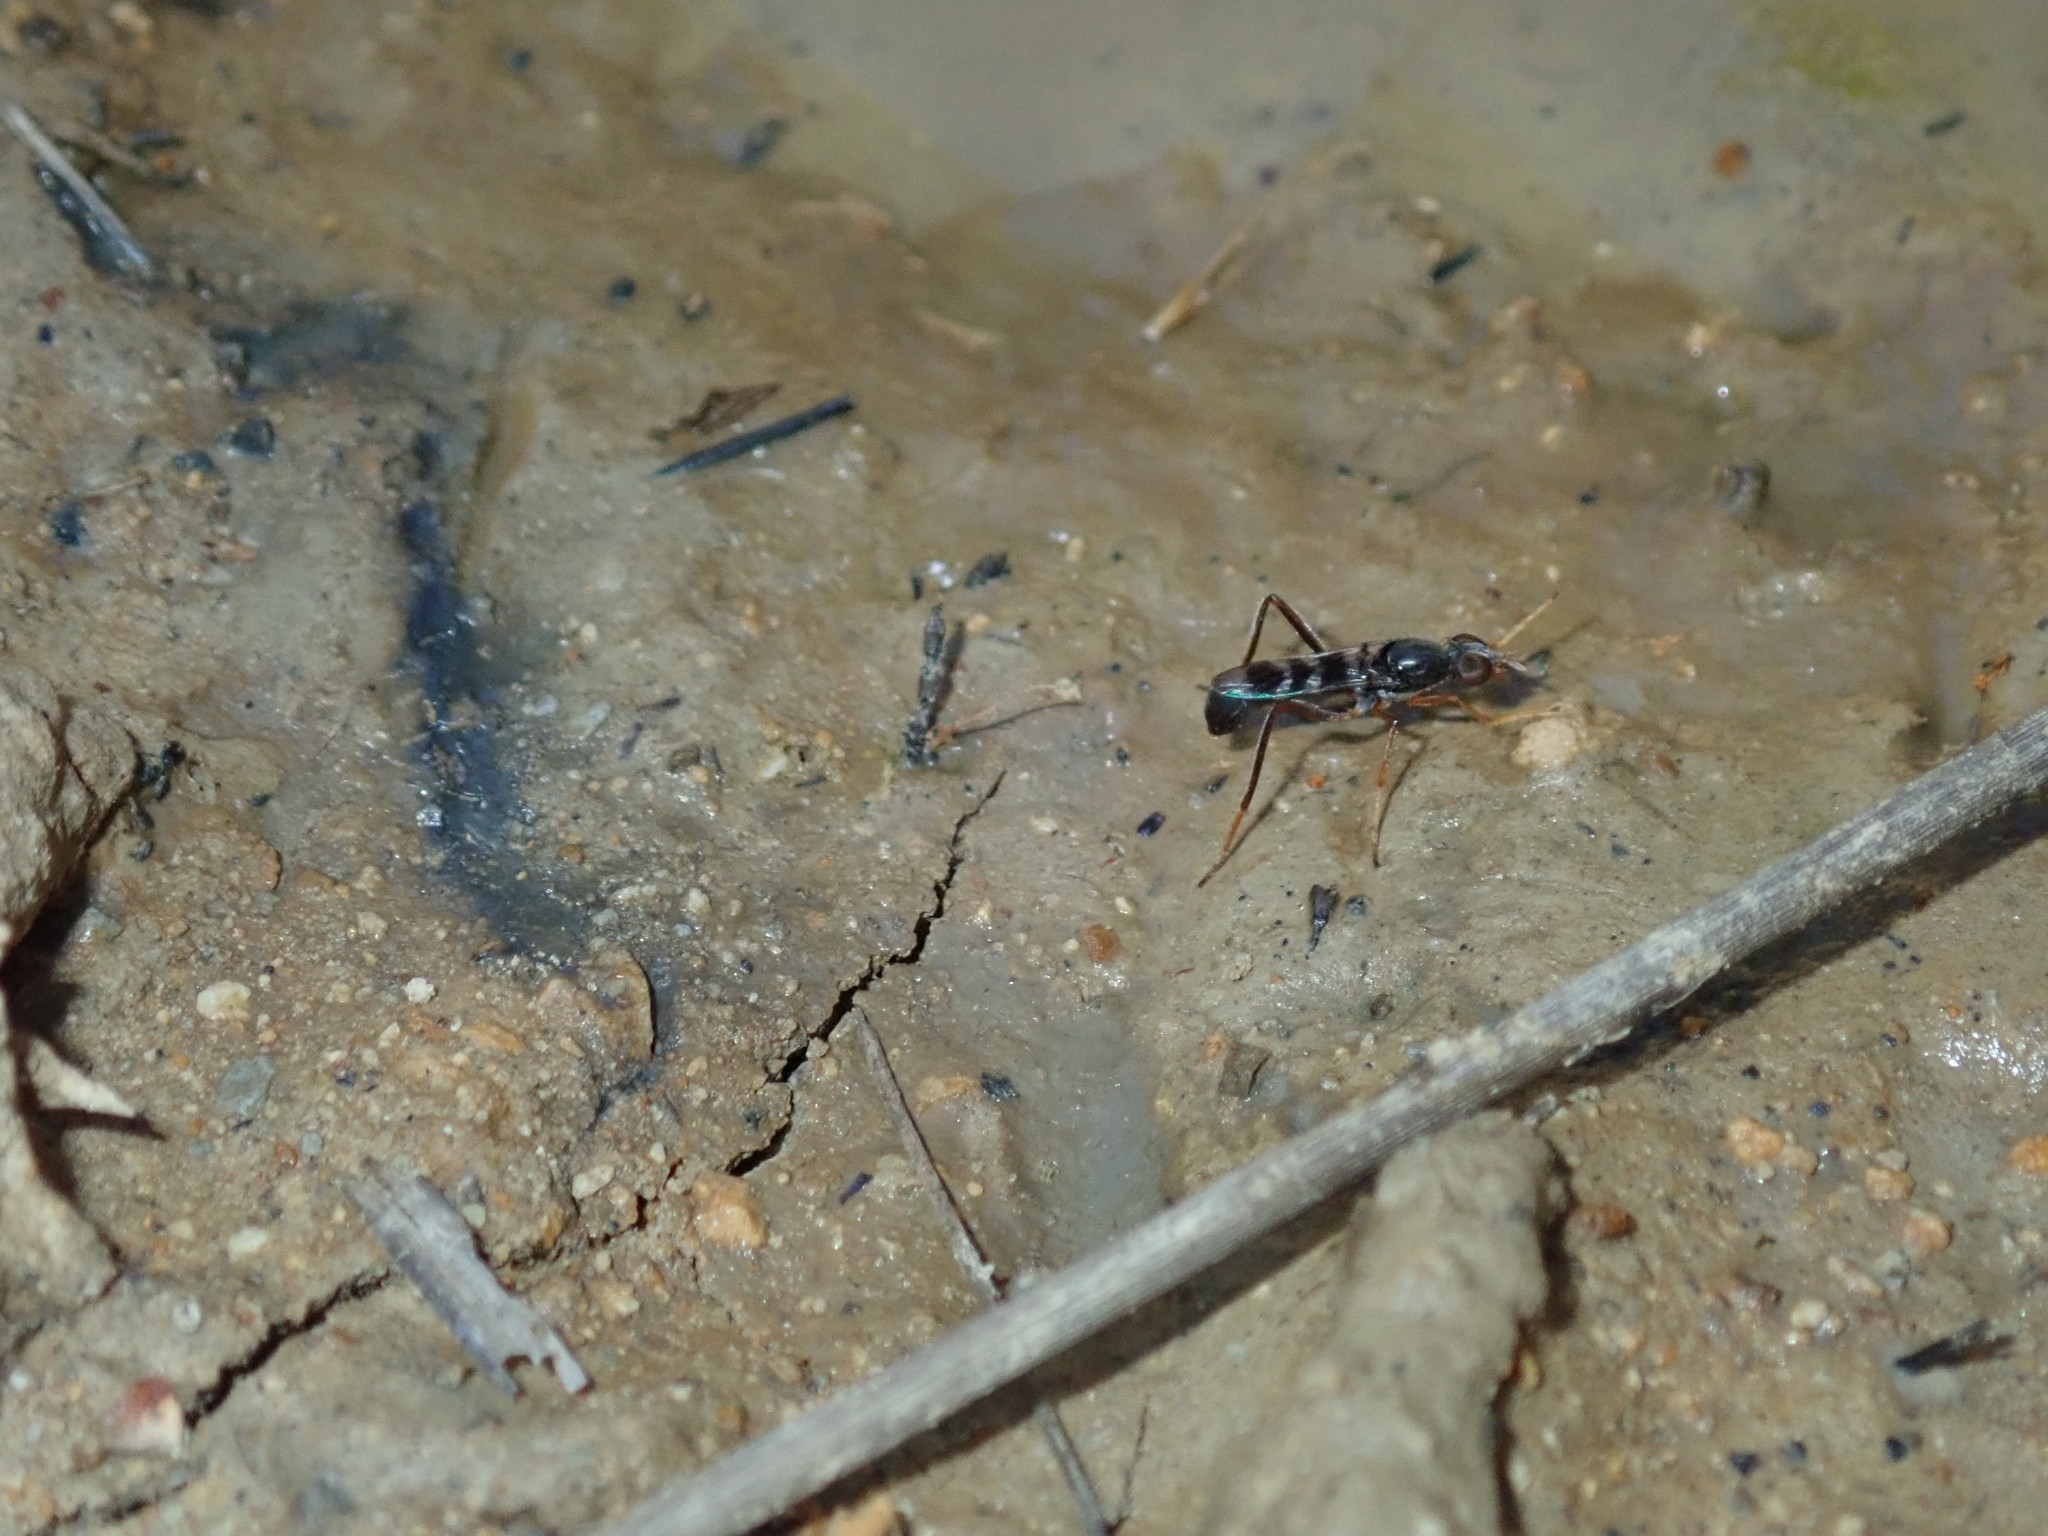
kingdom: Animalia
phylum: Arthropoda
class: Insecta
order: Diptera
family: Therevidae
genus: Acraspisoides
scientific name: Acraspisoides helviarta
